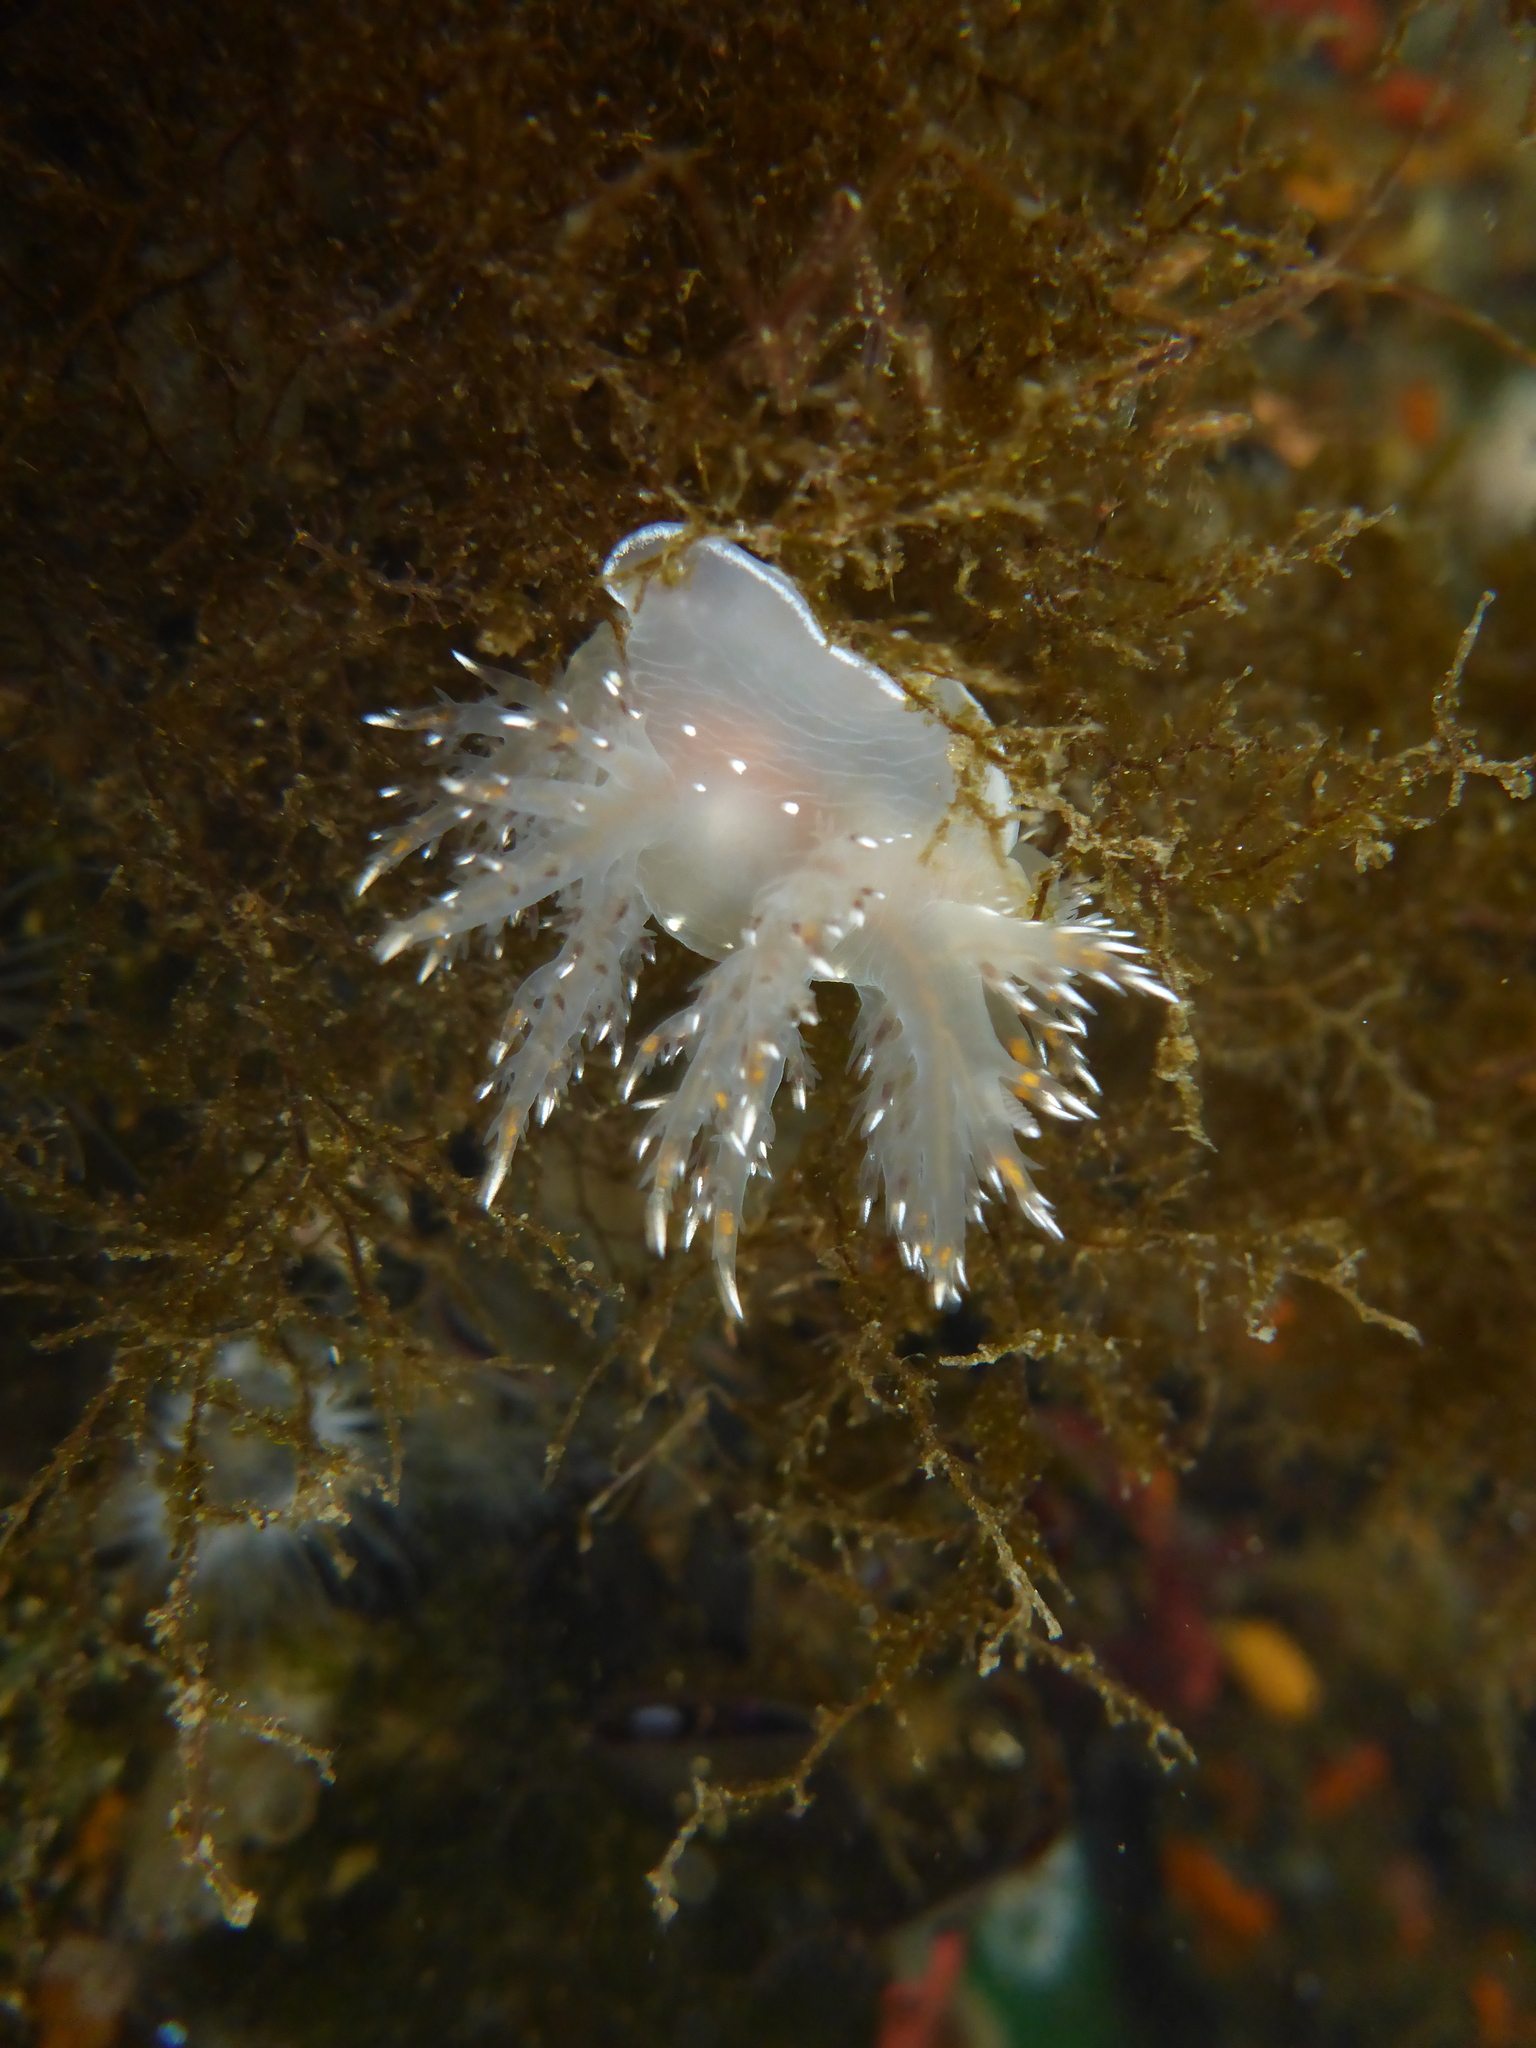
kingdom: Animalia
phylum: Mollusca
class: Gastropoda
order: Nudibranchia
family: Dendronotidae
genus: Dendronotus
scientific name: Dendronotus iris
